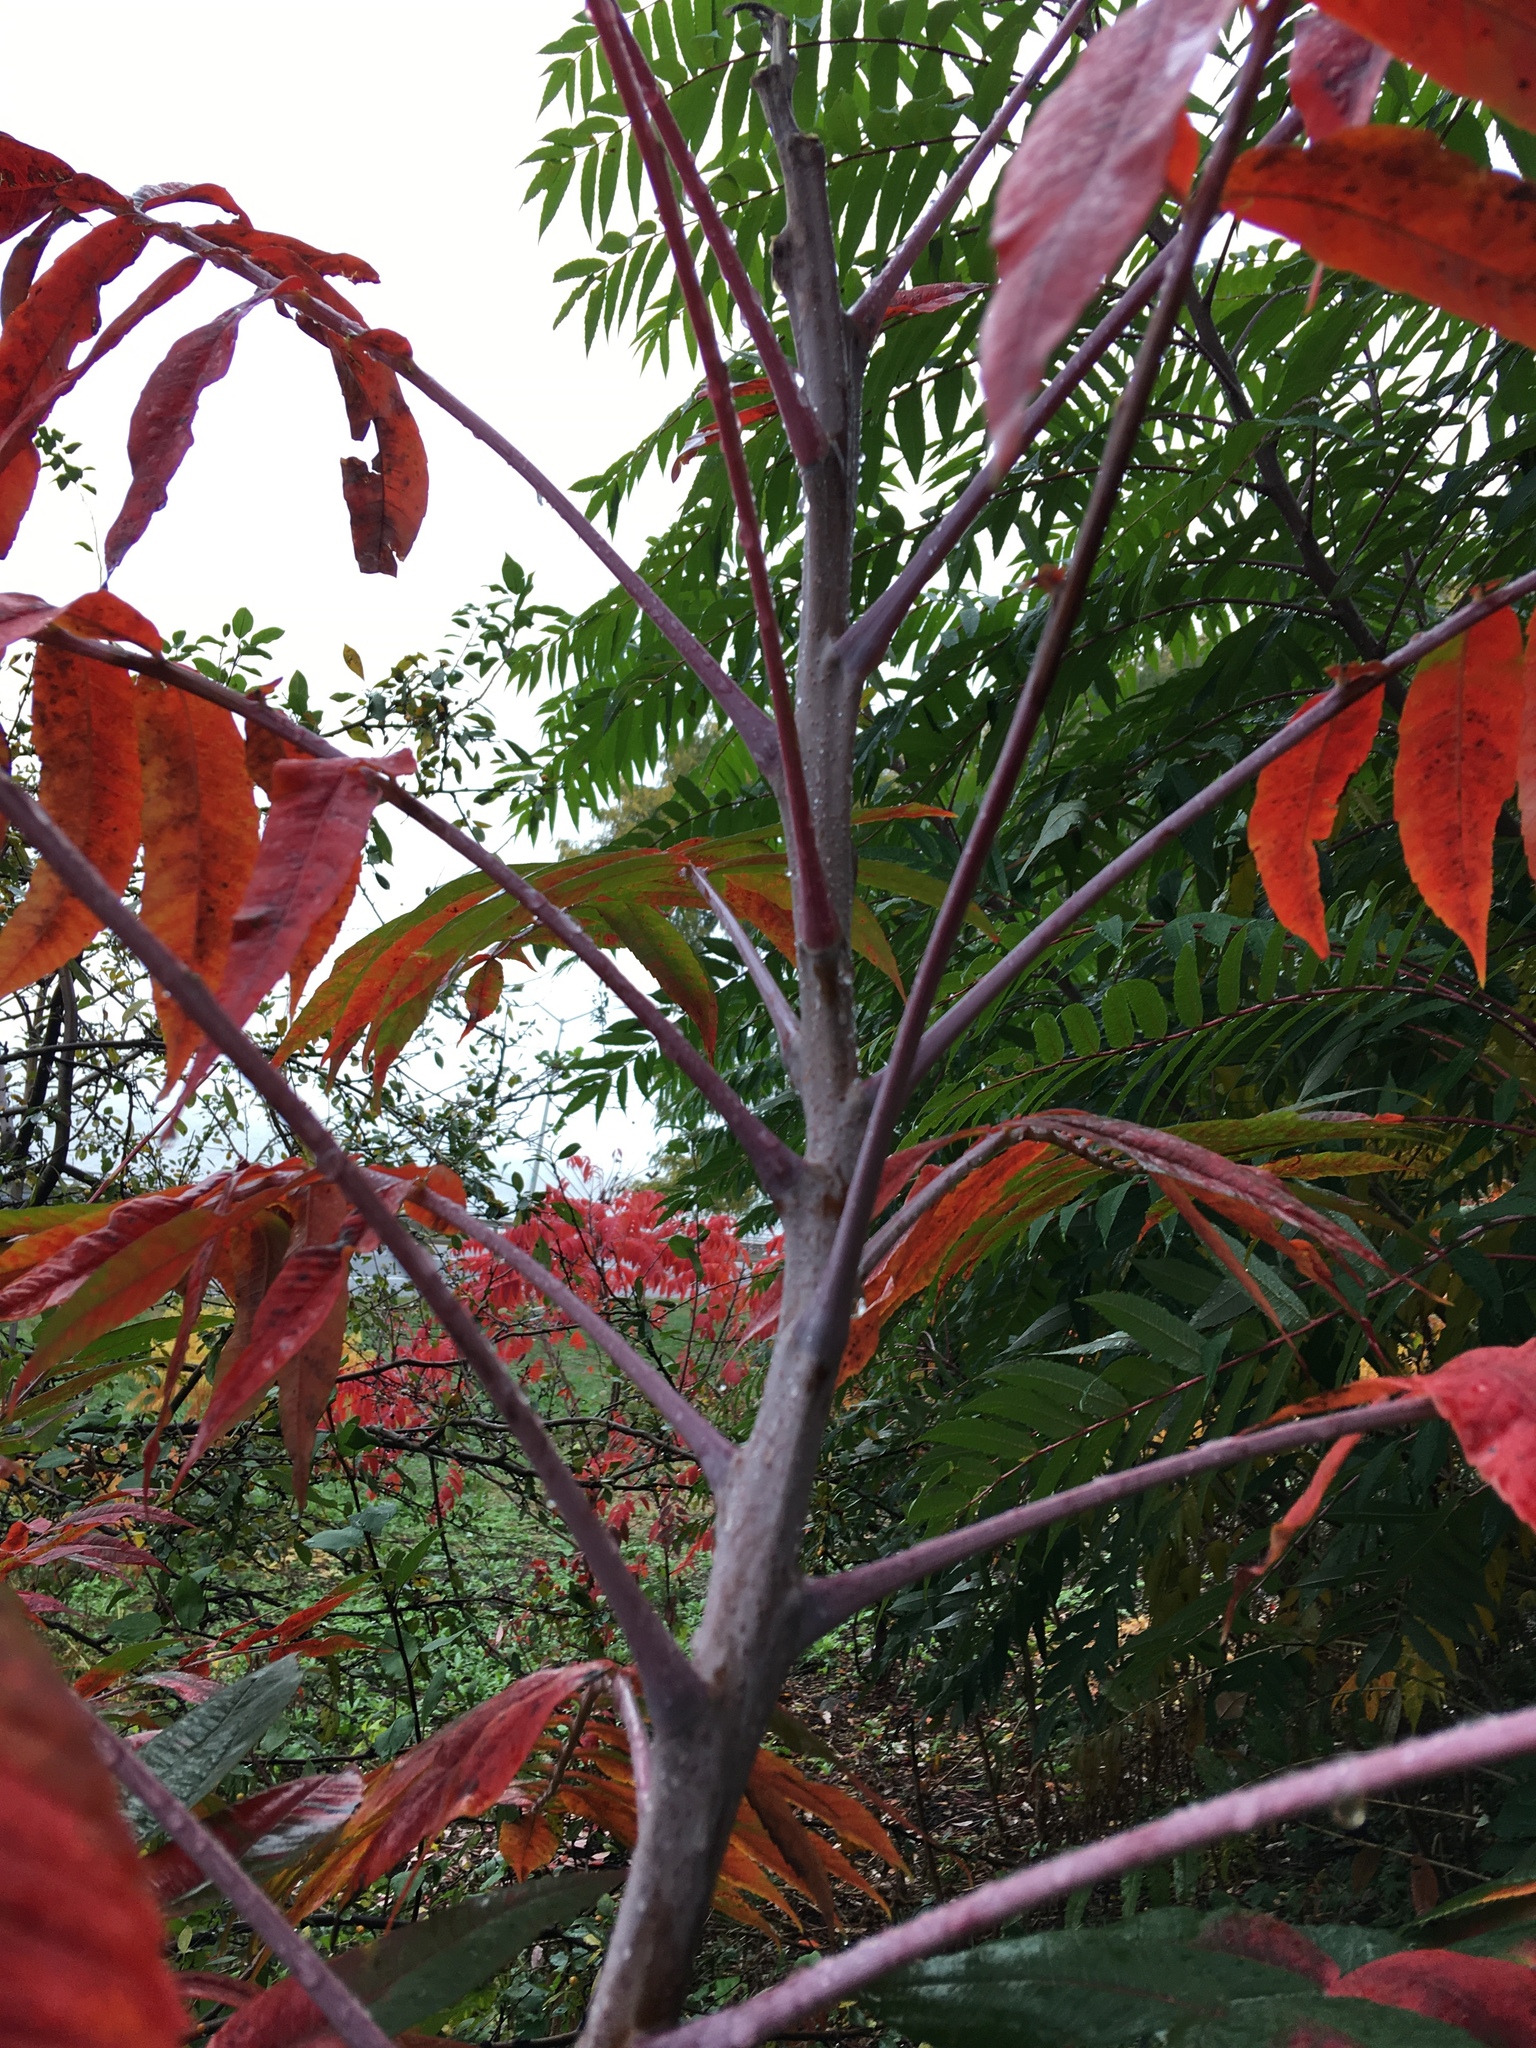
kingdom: Plantae
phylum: Tracheophyta
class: Magnoliopsida
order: Sapindales
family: Anacardiaceae
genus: Rhus
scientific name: Rhus glabra
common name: Scarlet sumac
